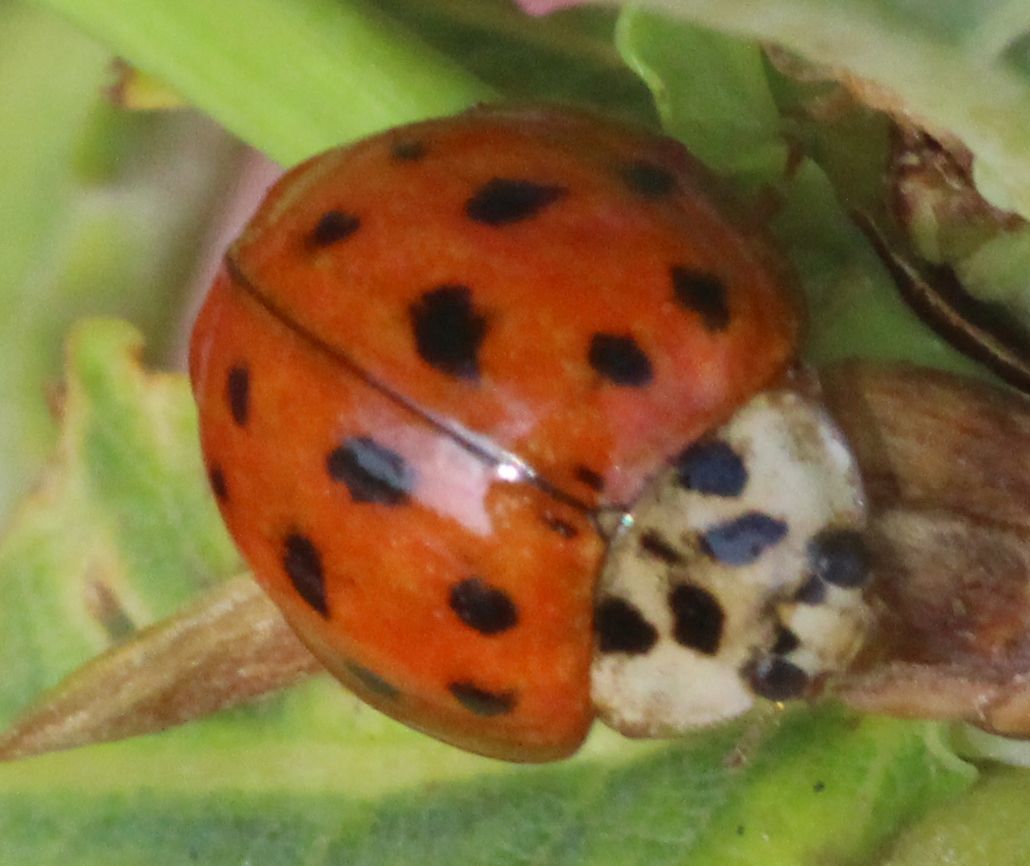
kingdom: Animalia
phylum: Arthropoda
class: Insecta
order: Coleoptera
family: Coccinellidae
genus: Harmonia
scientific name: Harmonia axyridis
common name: Harlequin ladybird
